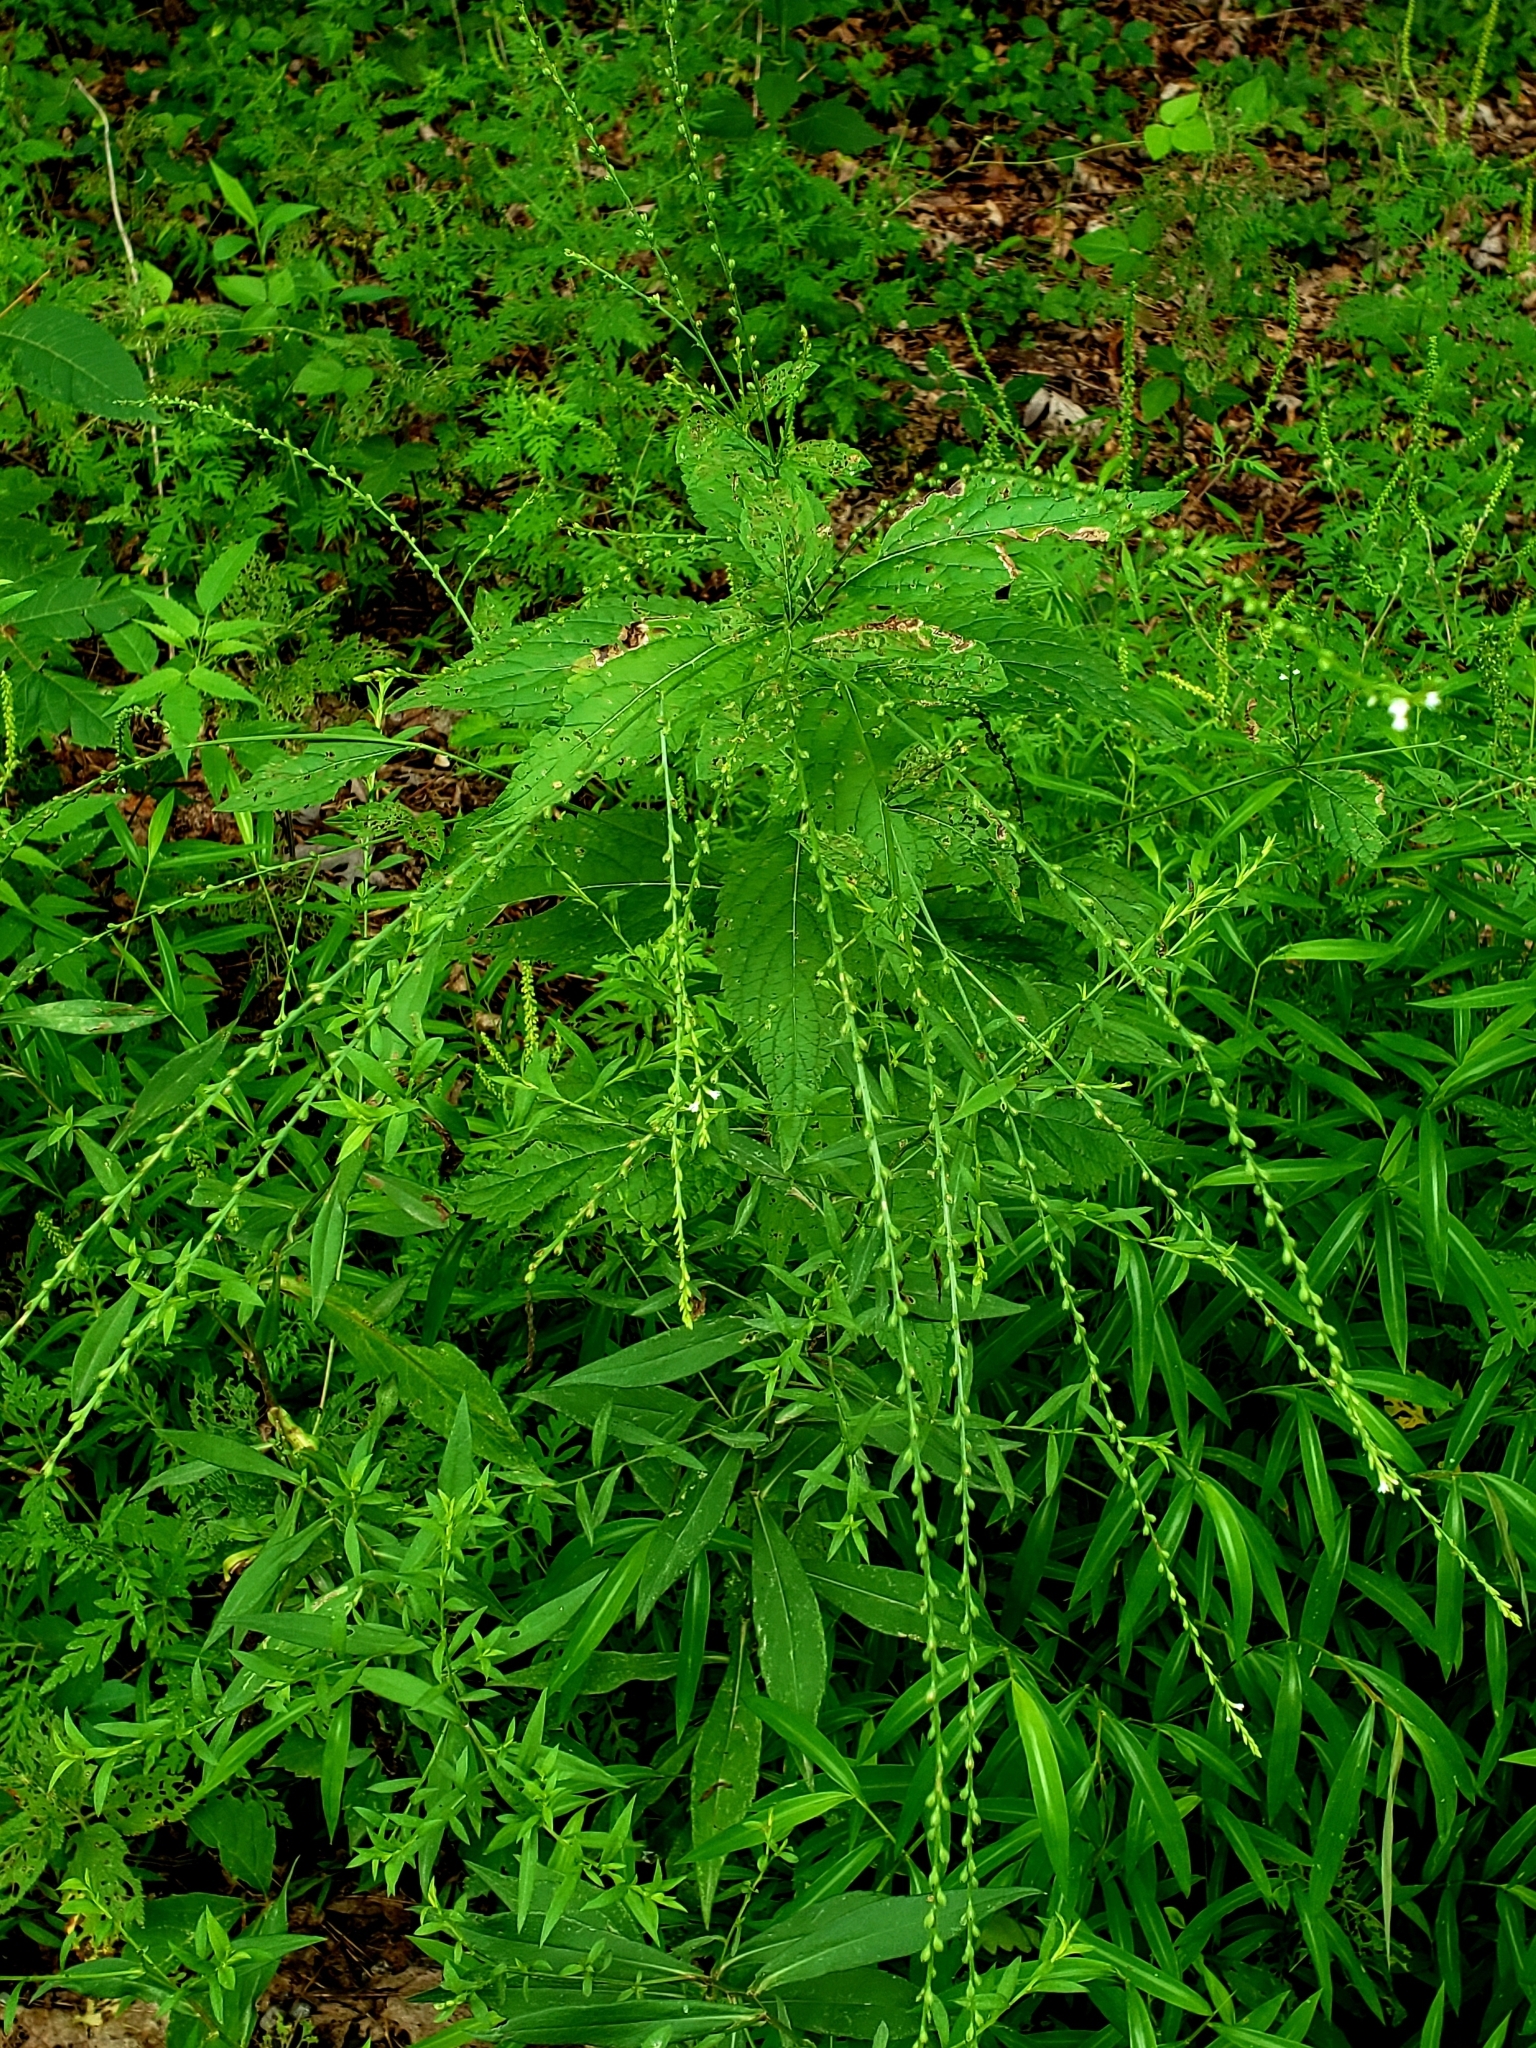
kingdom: Plantae
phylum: Tracheophyta
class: Magnoliopsida
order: Lamiales
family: Verbenaceae
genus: Verbena
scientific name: Verbena urticifolia
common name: Nettle-leaved vervain
